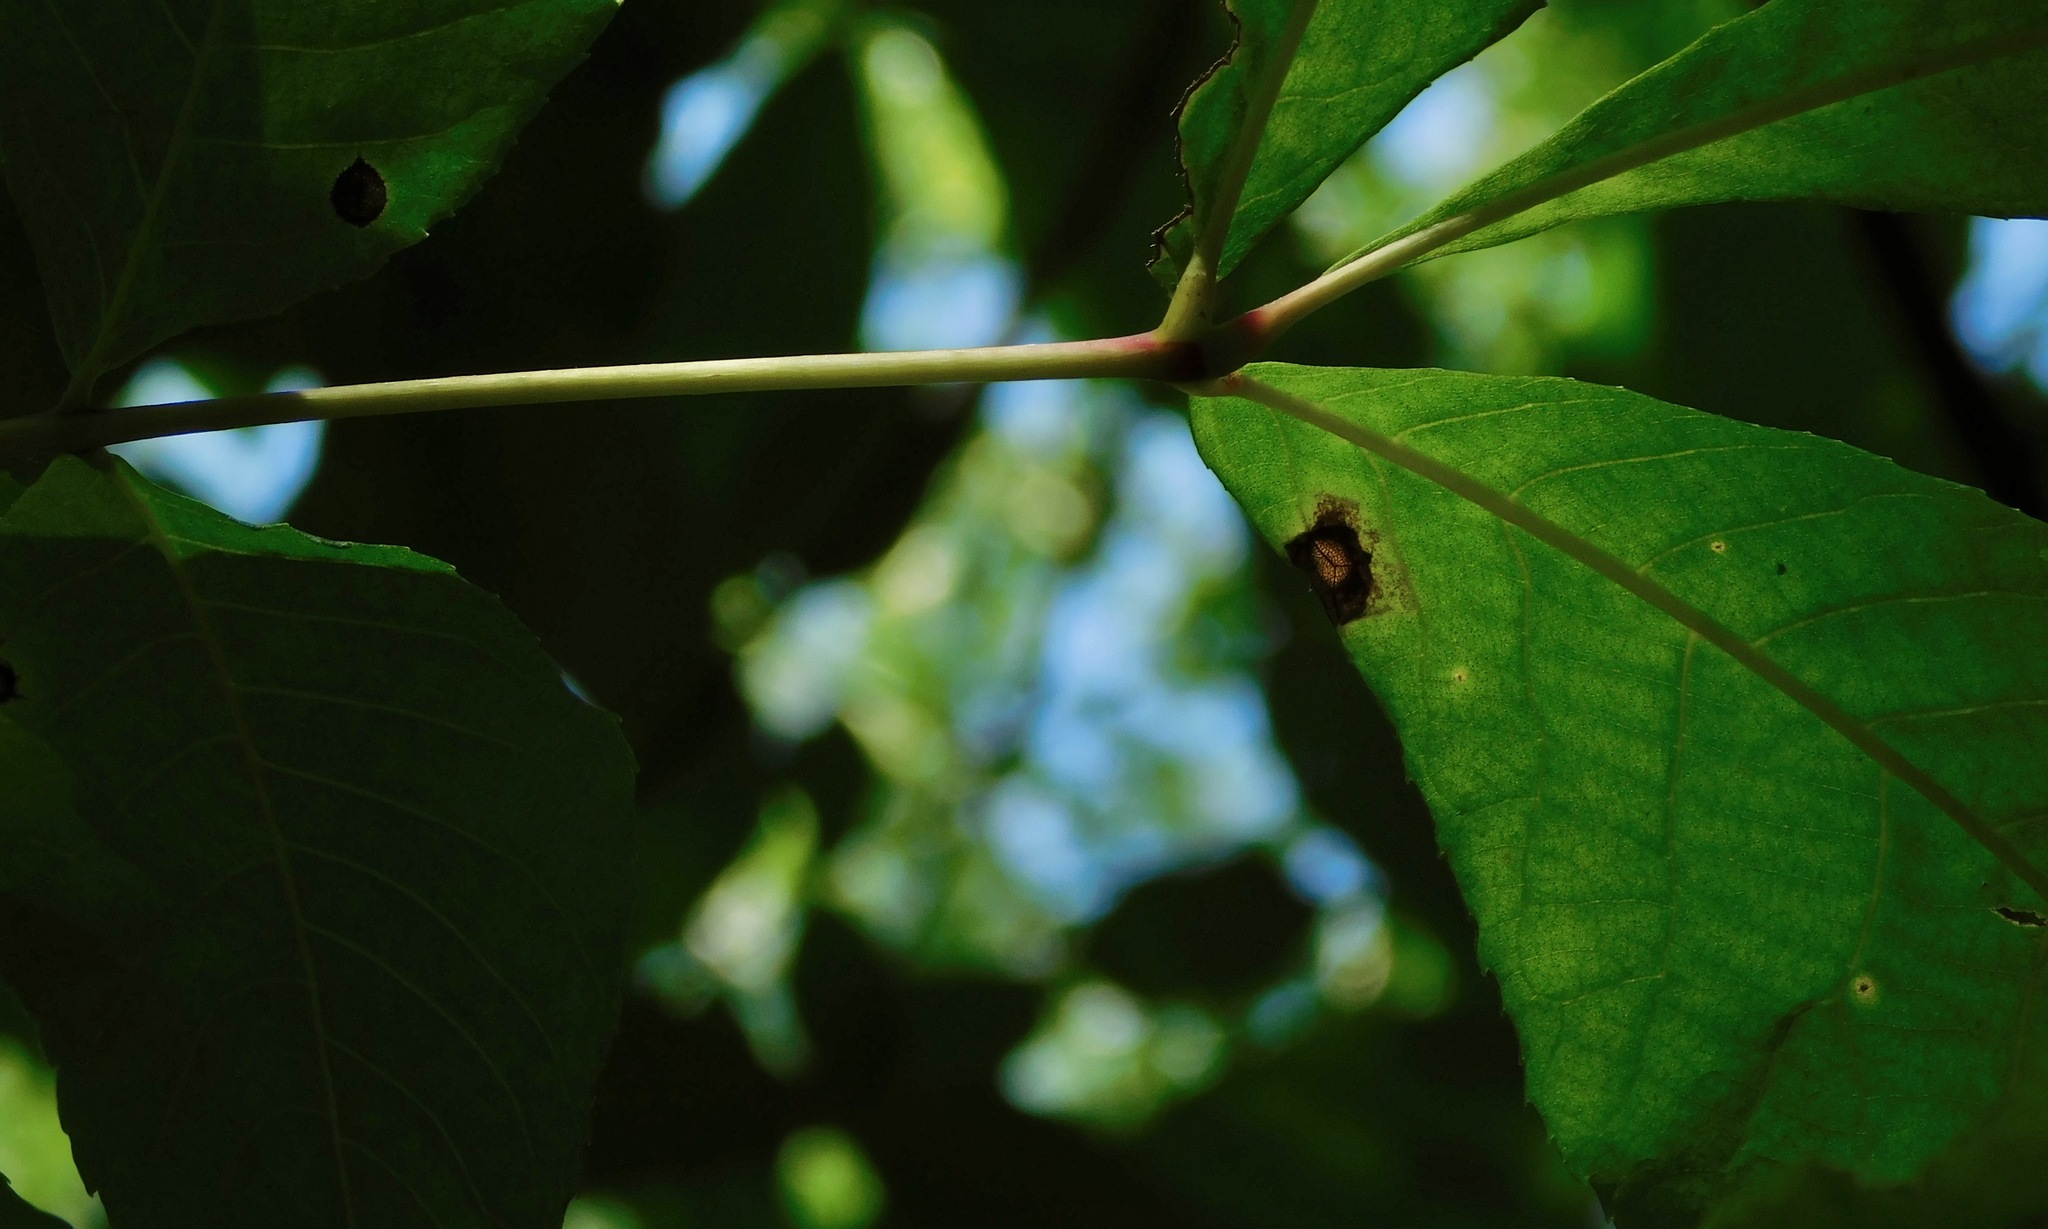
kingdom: Plantae
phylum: Tracheophyta
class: Magnoliopsida
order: Fagales
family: Juglandaceae
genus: Carya
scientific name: Carya glabra
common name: Pignut hickory
